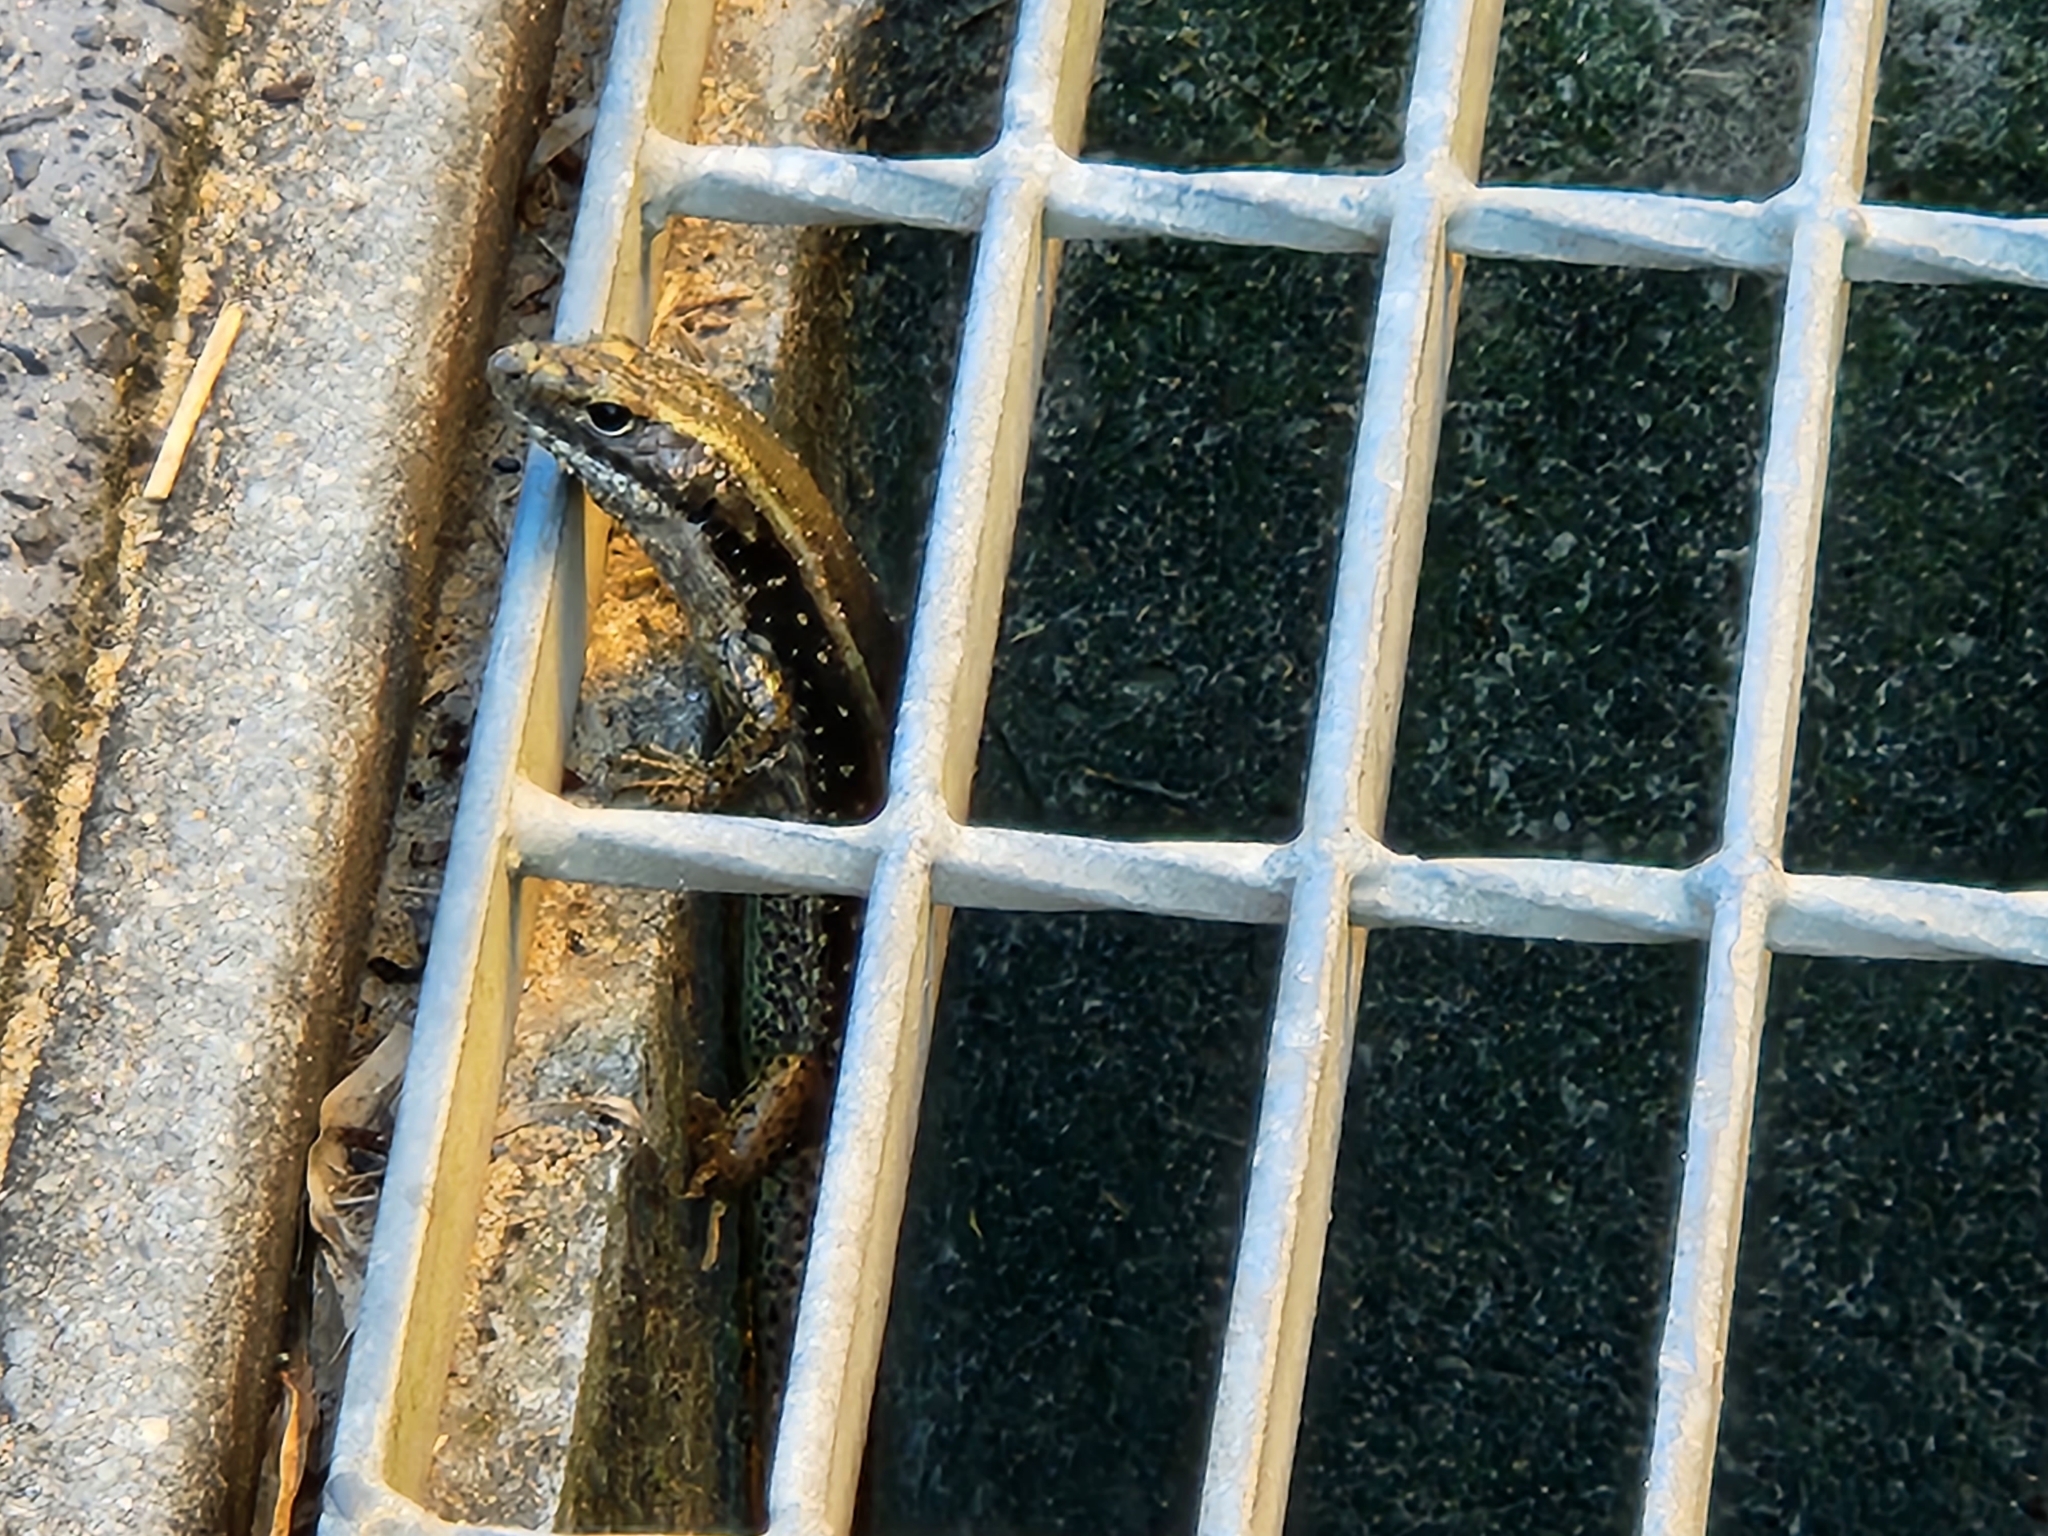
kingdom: Animalia
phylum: Chordata
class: Squamata
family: Scincidae
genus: Eulamprus
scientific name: Eulamprus quoyii
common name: Eastern water skink
